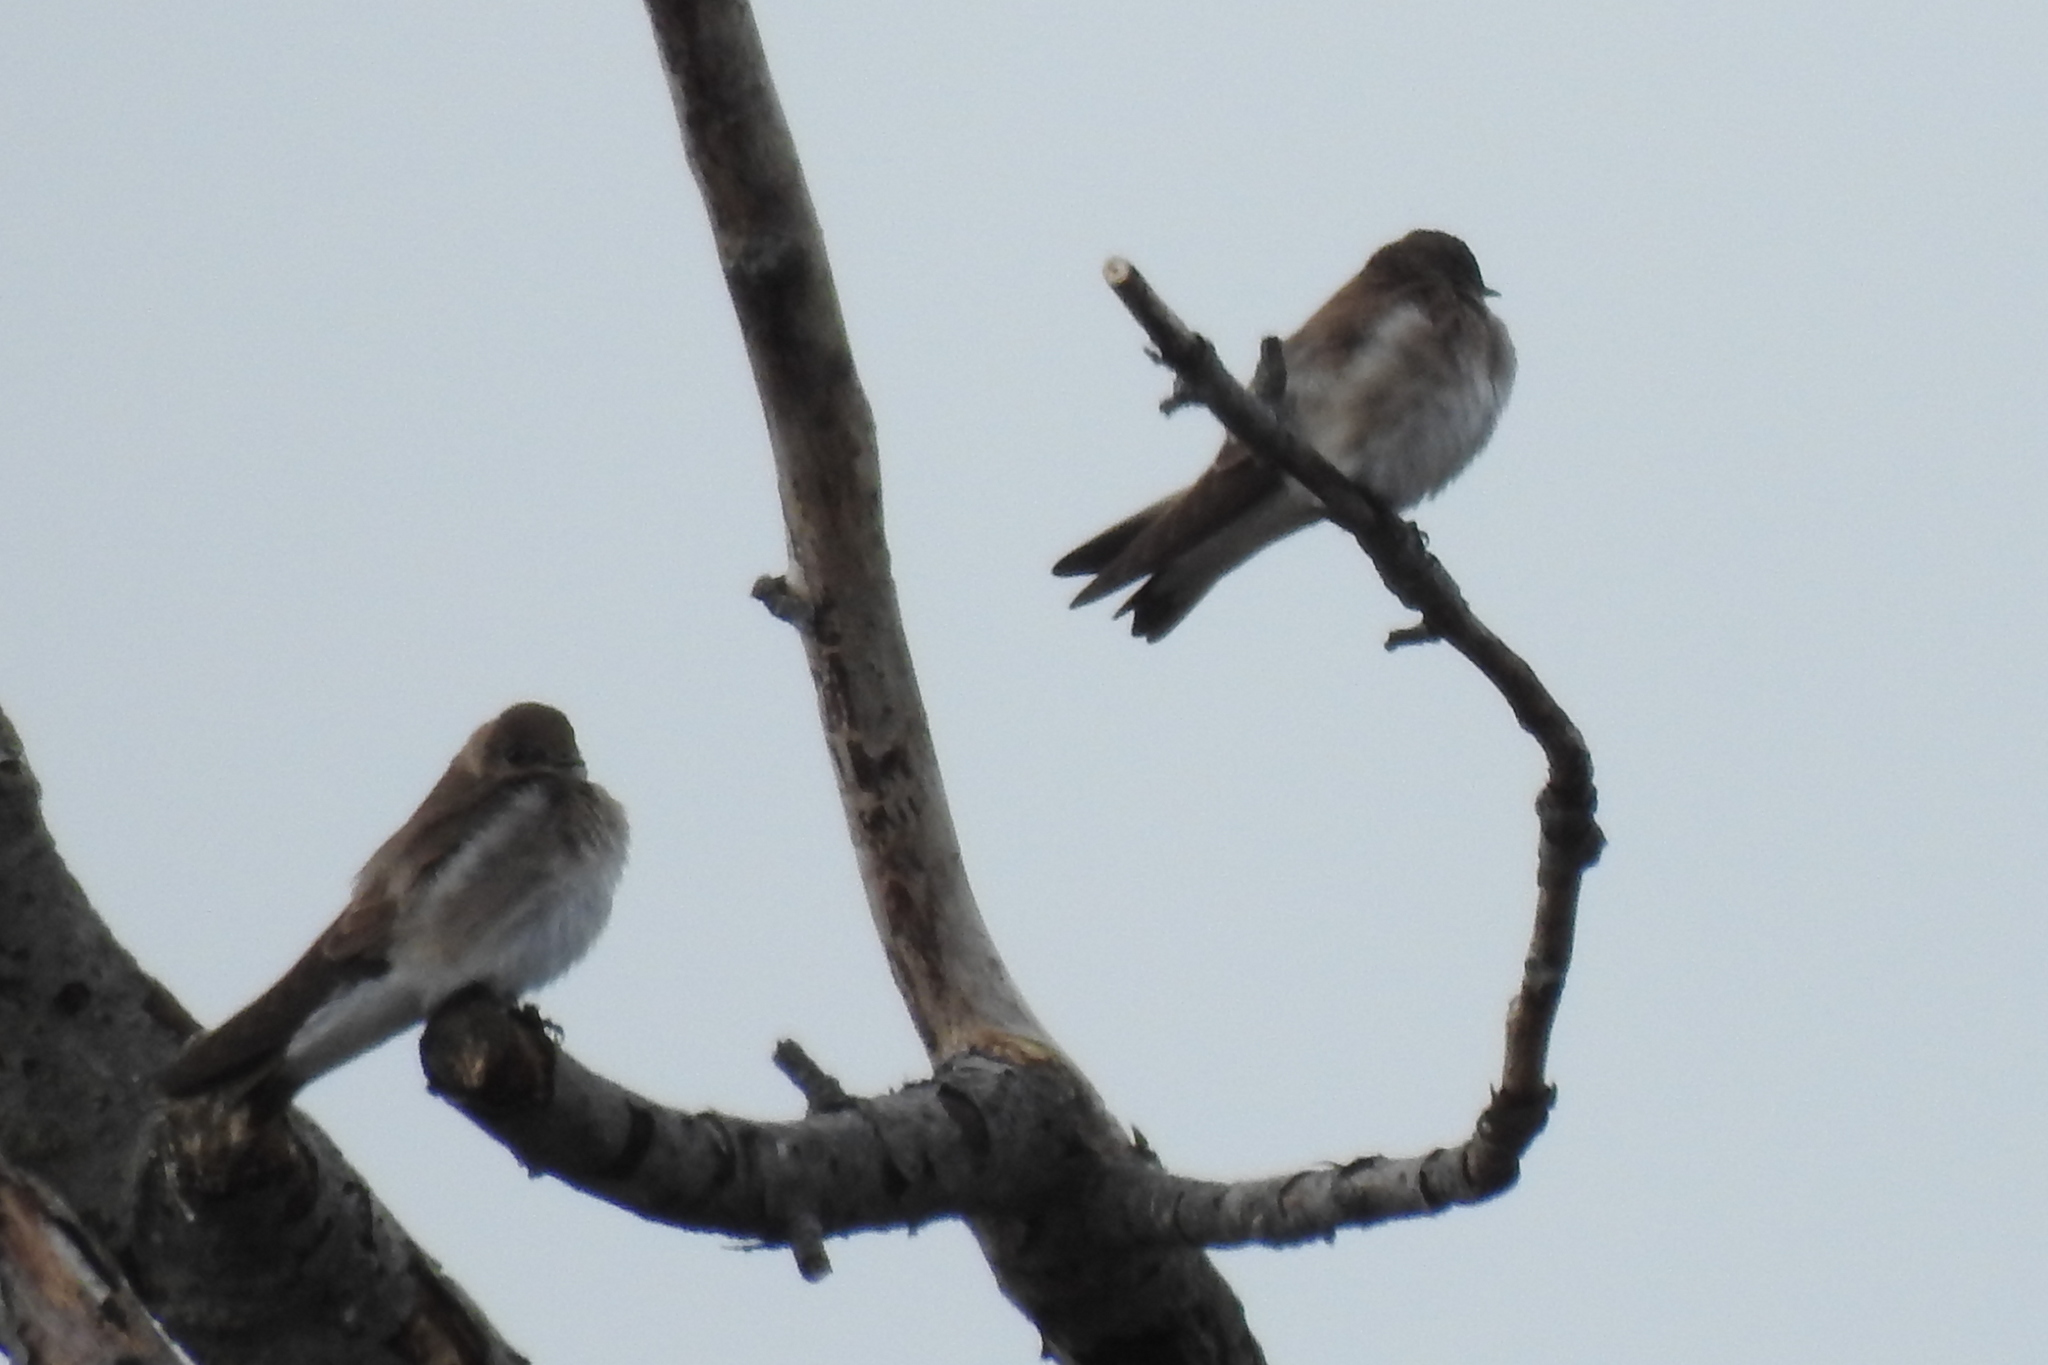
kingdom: Animalia
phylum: Chordata
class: Aves
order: Passeriformes
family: Hirundinidae
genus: Stelgidopteryx
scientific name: Stelgidopteryx serripennis
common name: Northern rough-winged swallow
